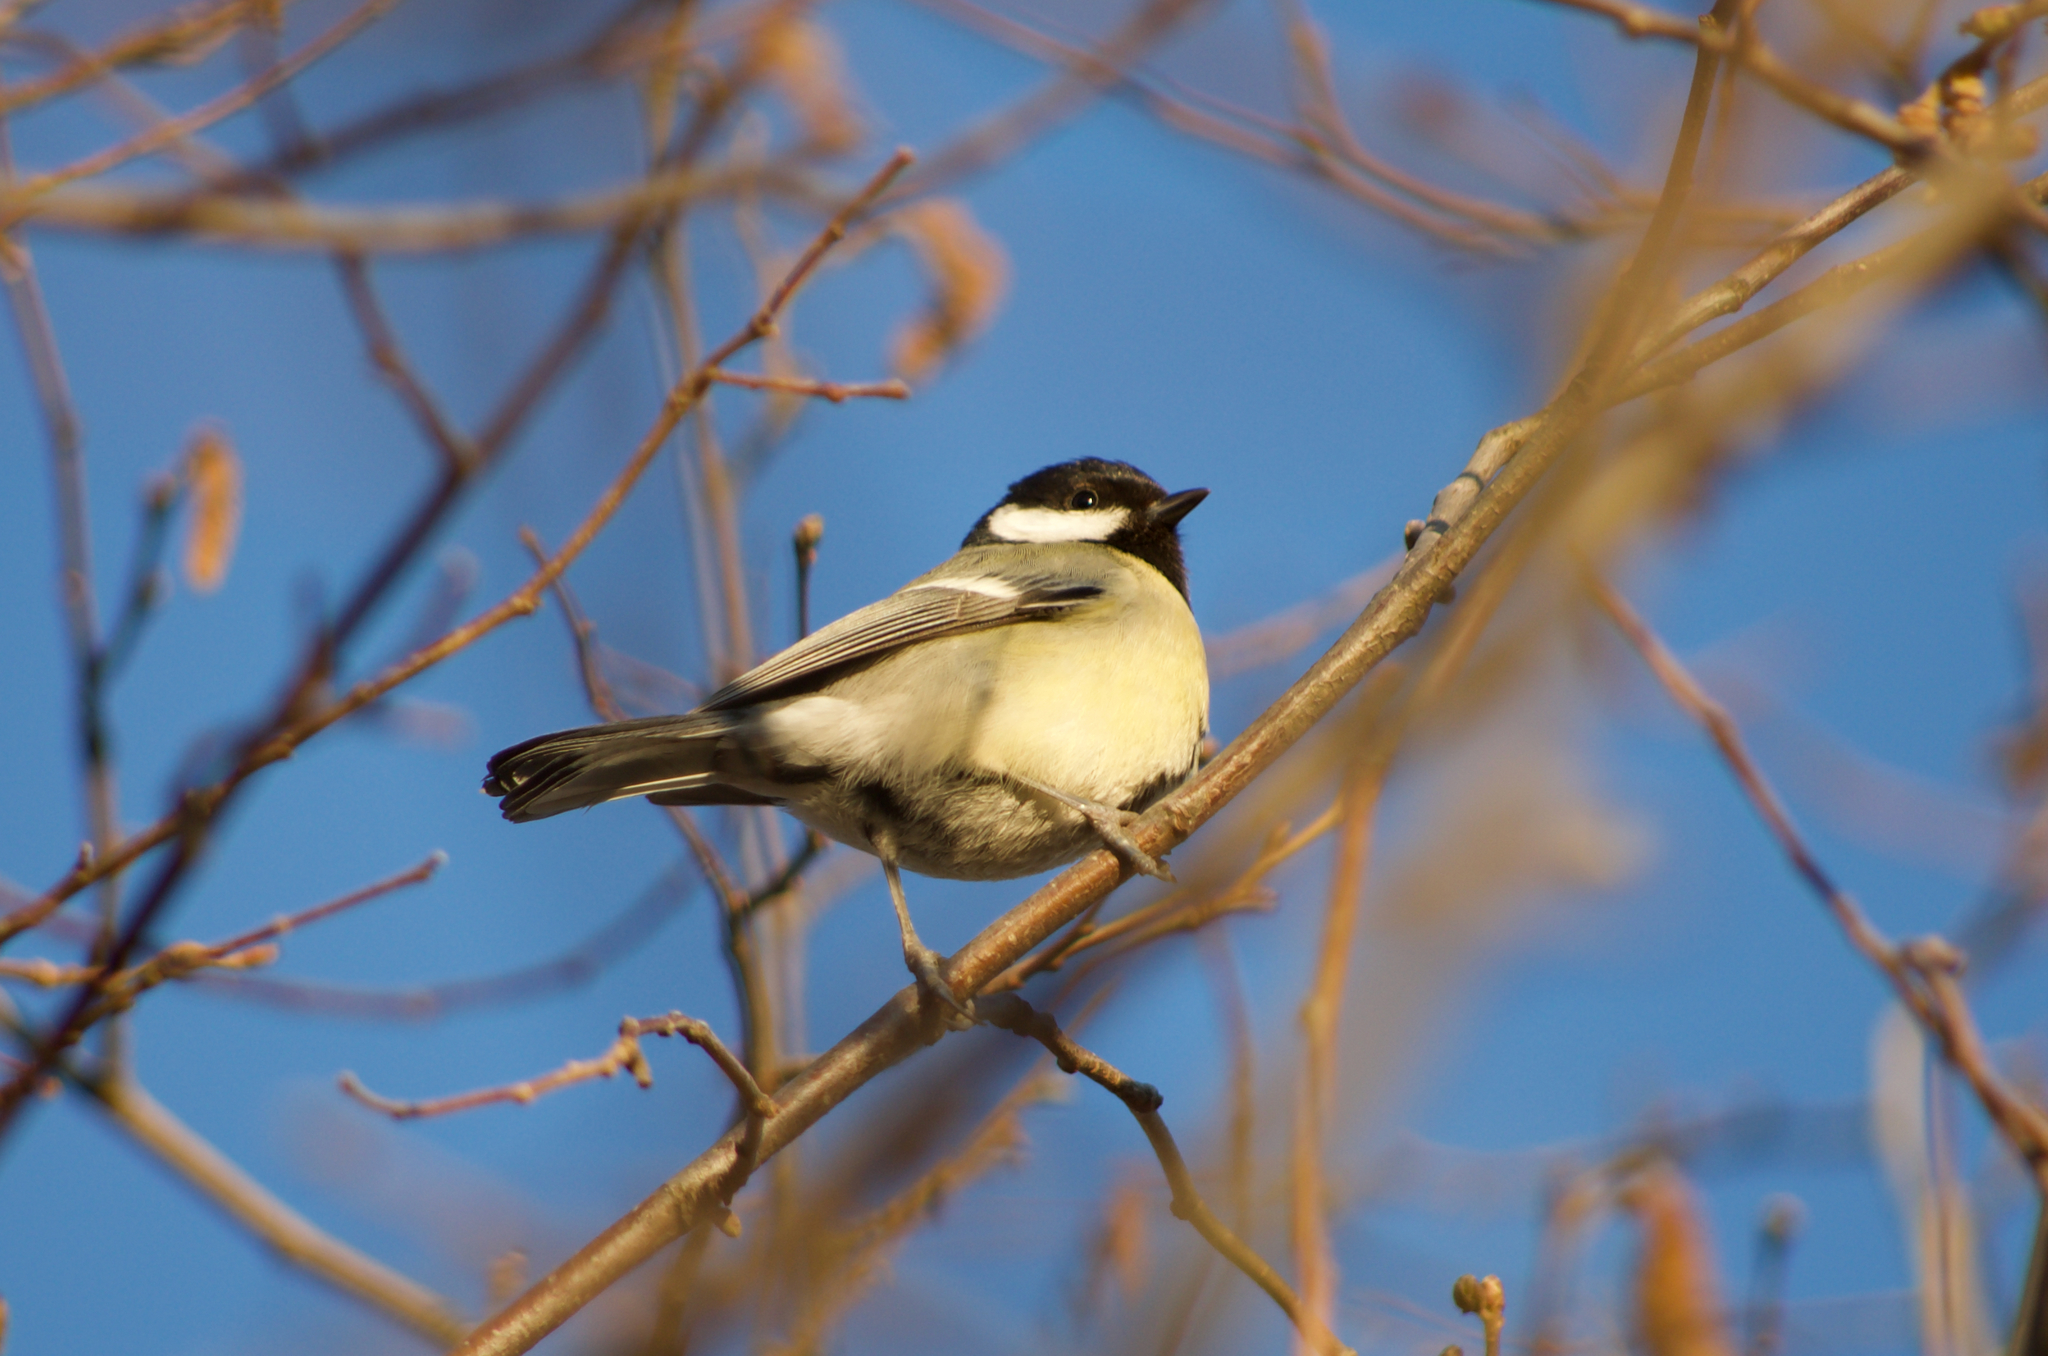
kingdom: Animalia
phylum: Chordata
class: Aves
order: Passeriformes
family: Paridae
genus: Parus
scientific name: Parus major
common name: Great tit
